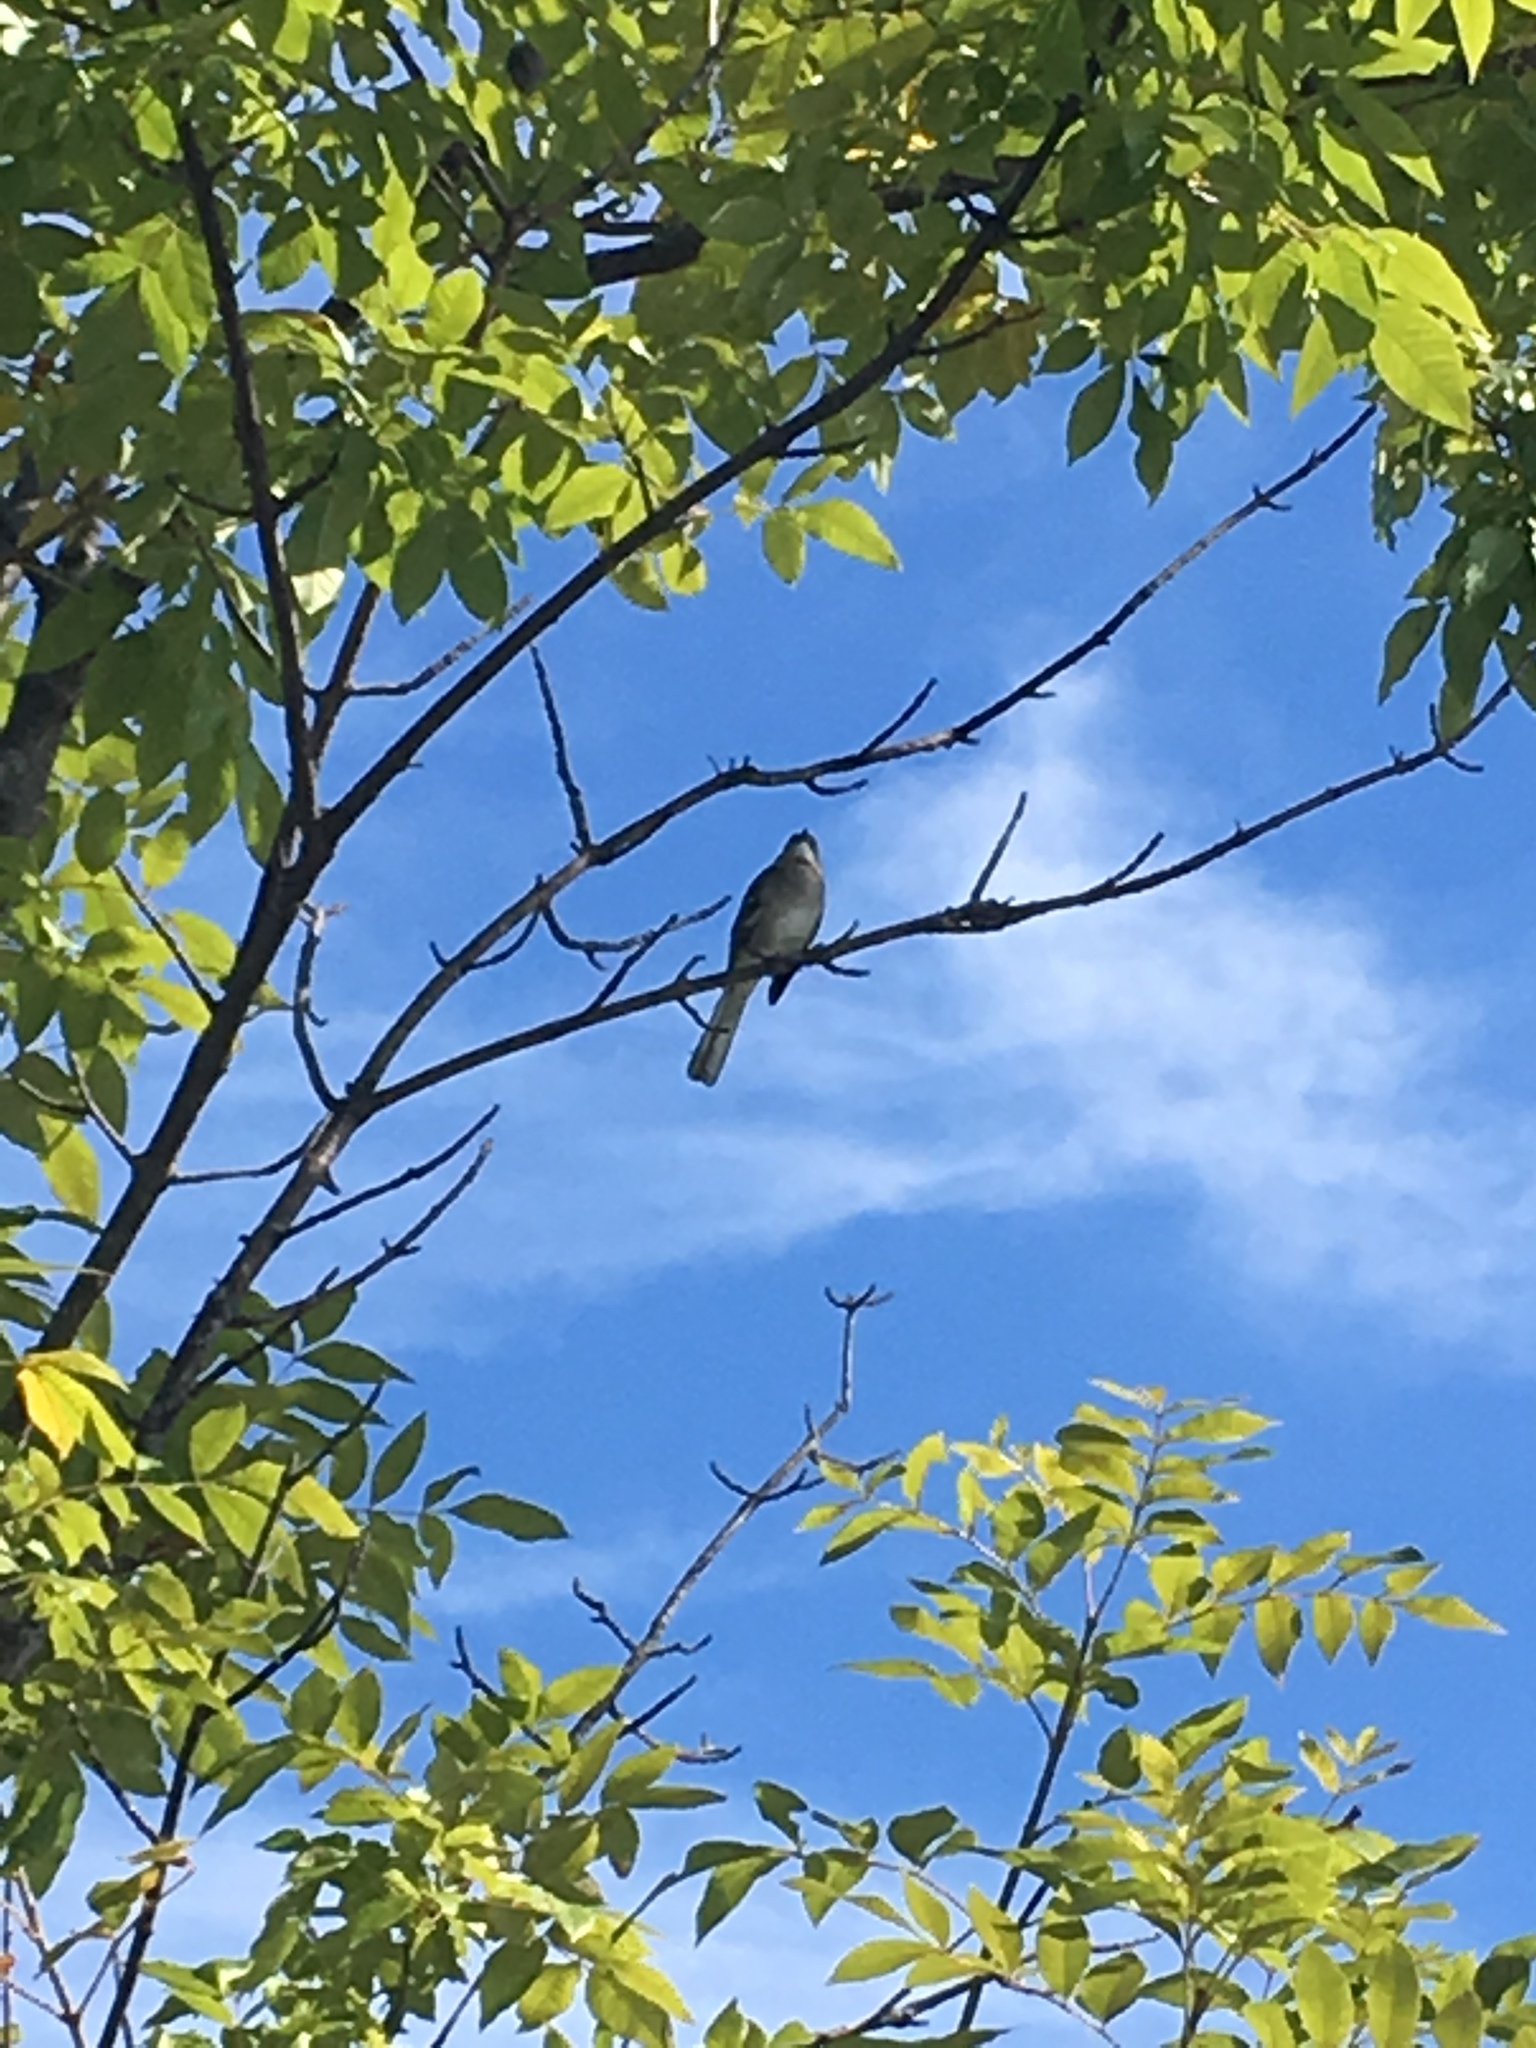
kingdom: Animalia
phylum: Chordata
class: Aves
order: Passeriformes
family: Mimidae
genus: Mimus
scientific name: Mimus polyglottos
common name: Northern mockingbird
